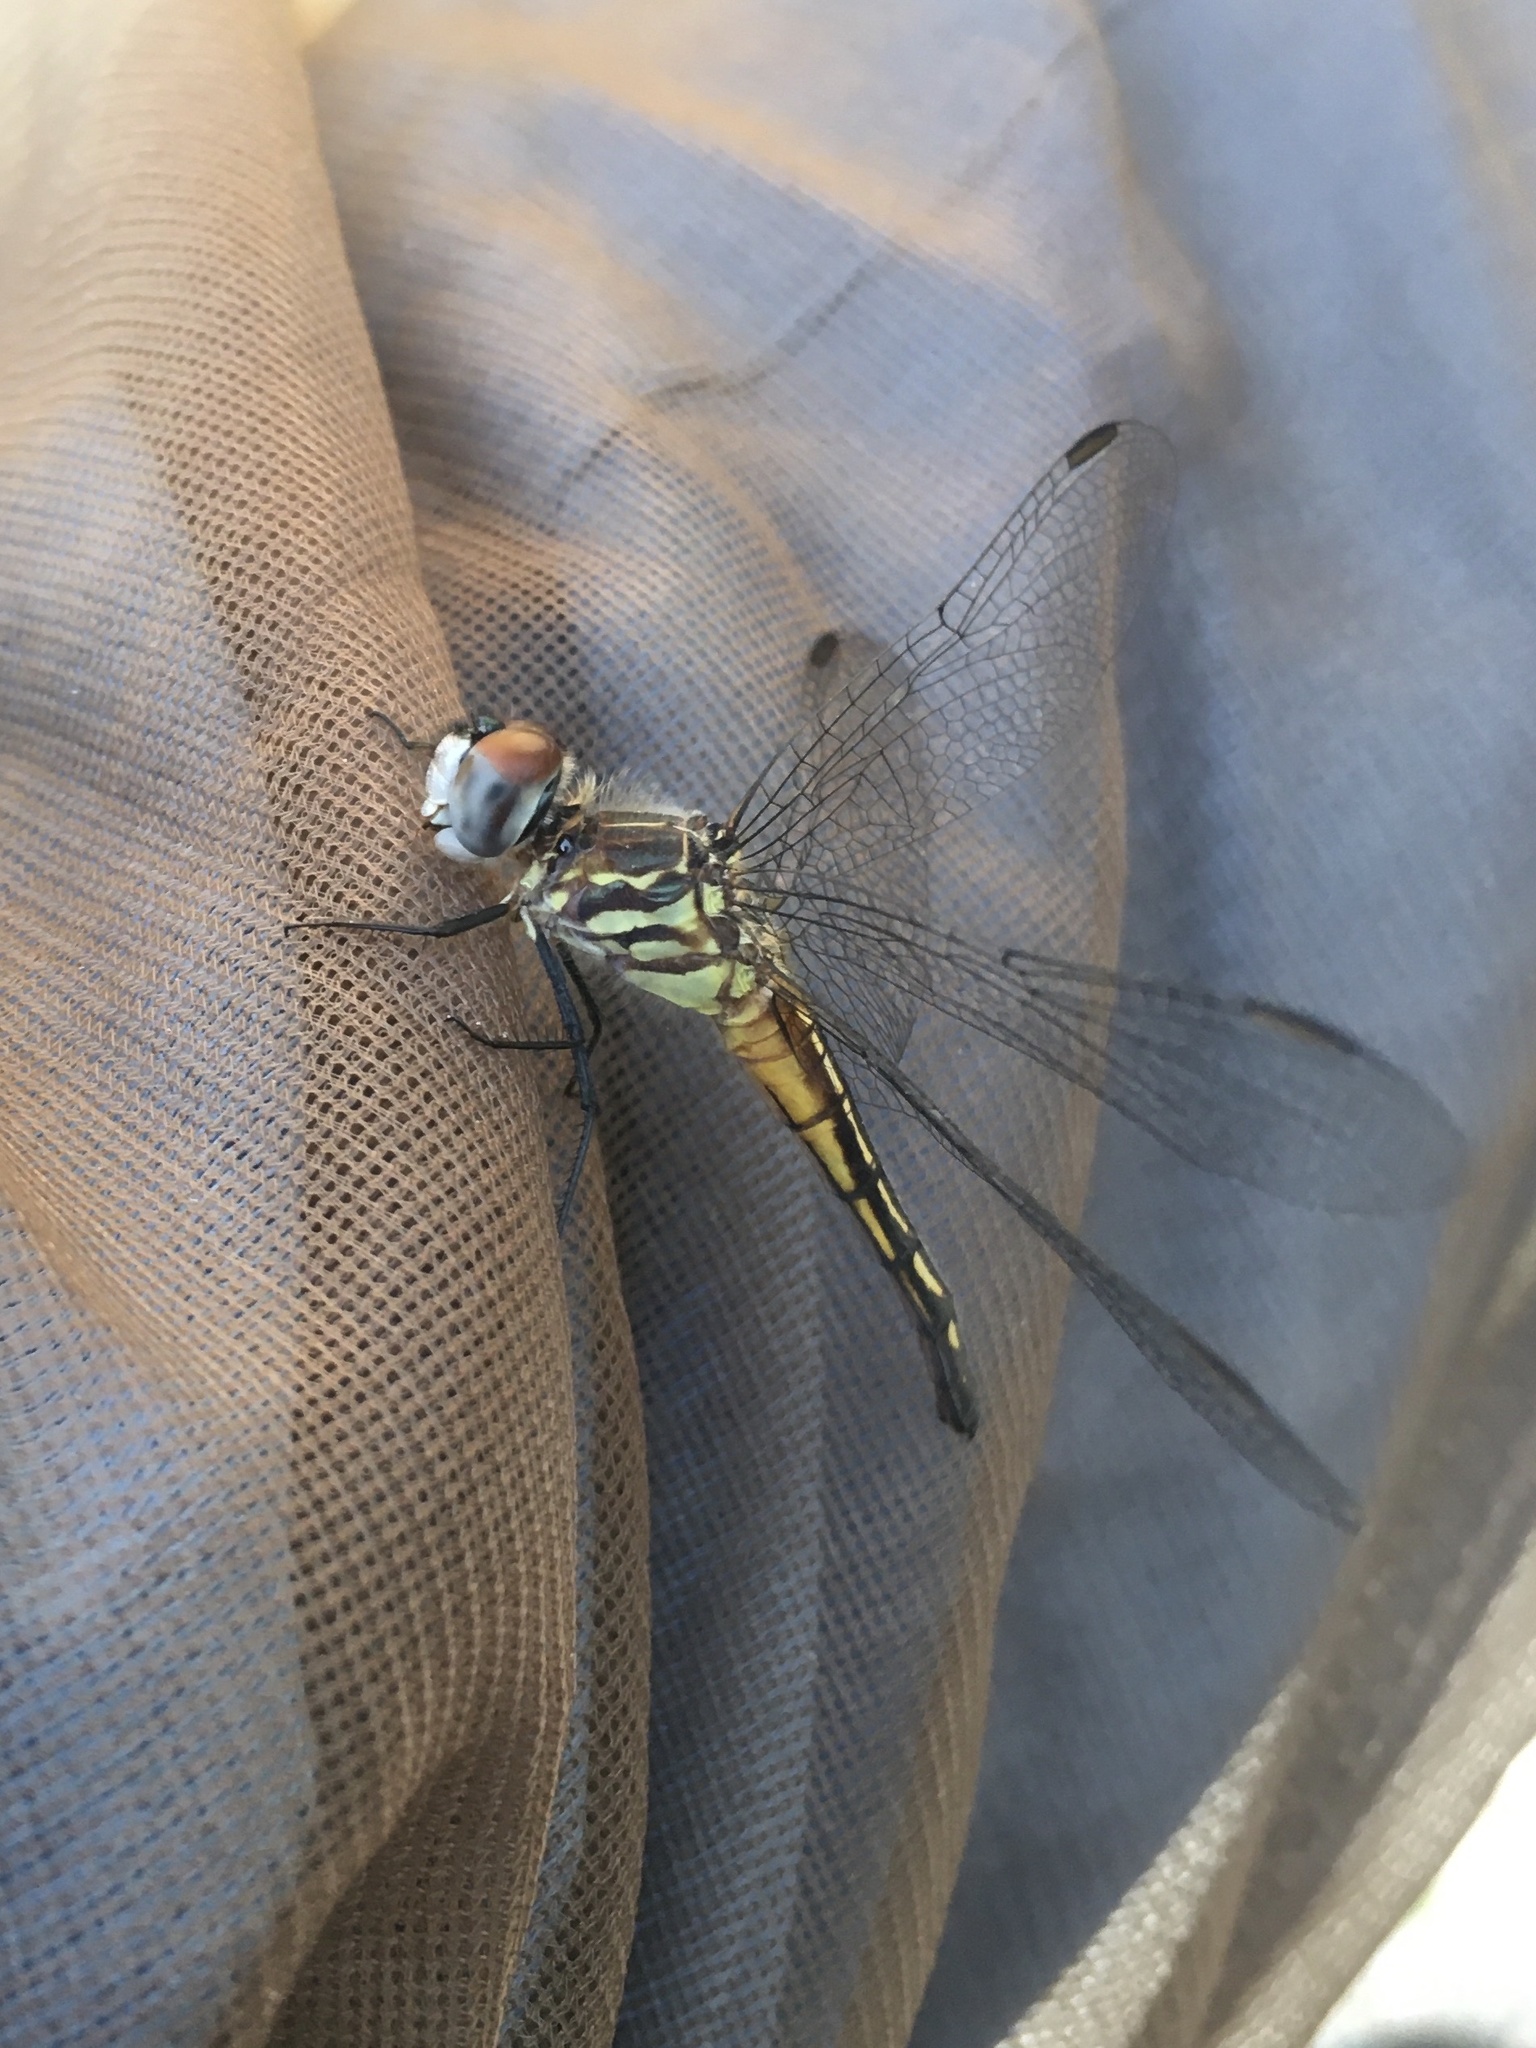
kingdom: Animalia
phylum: Arthropoda
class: Insecta
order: Odonata
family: Libellulidae
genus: Pachydiplax
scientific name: Pachydiplax longipennis
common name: Blue dasher
